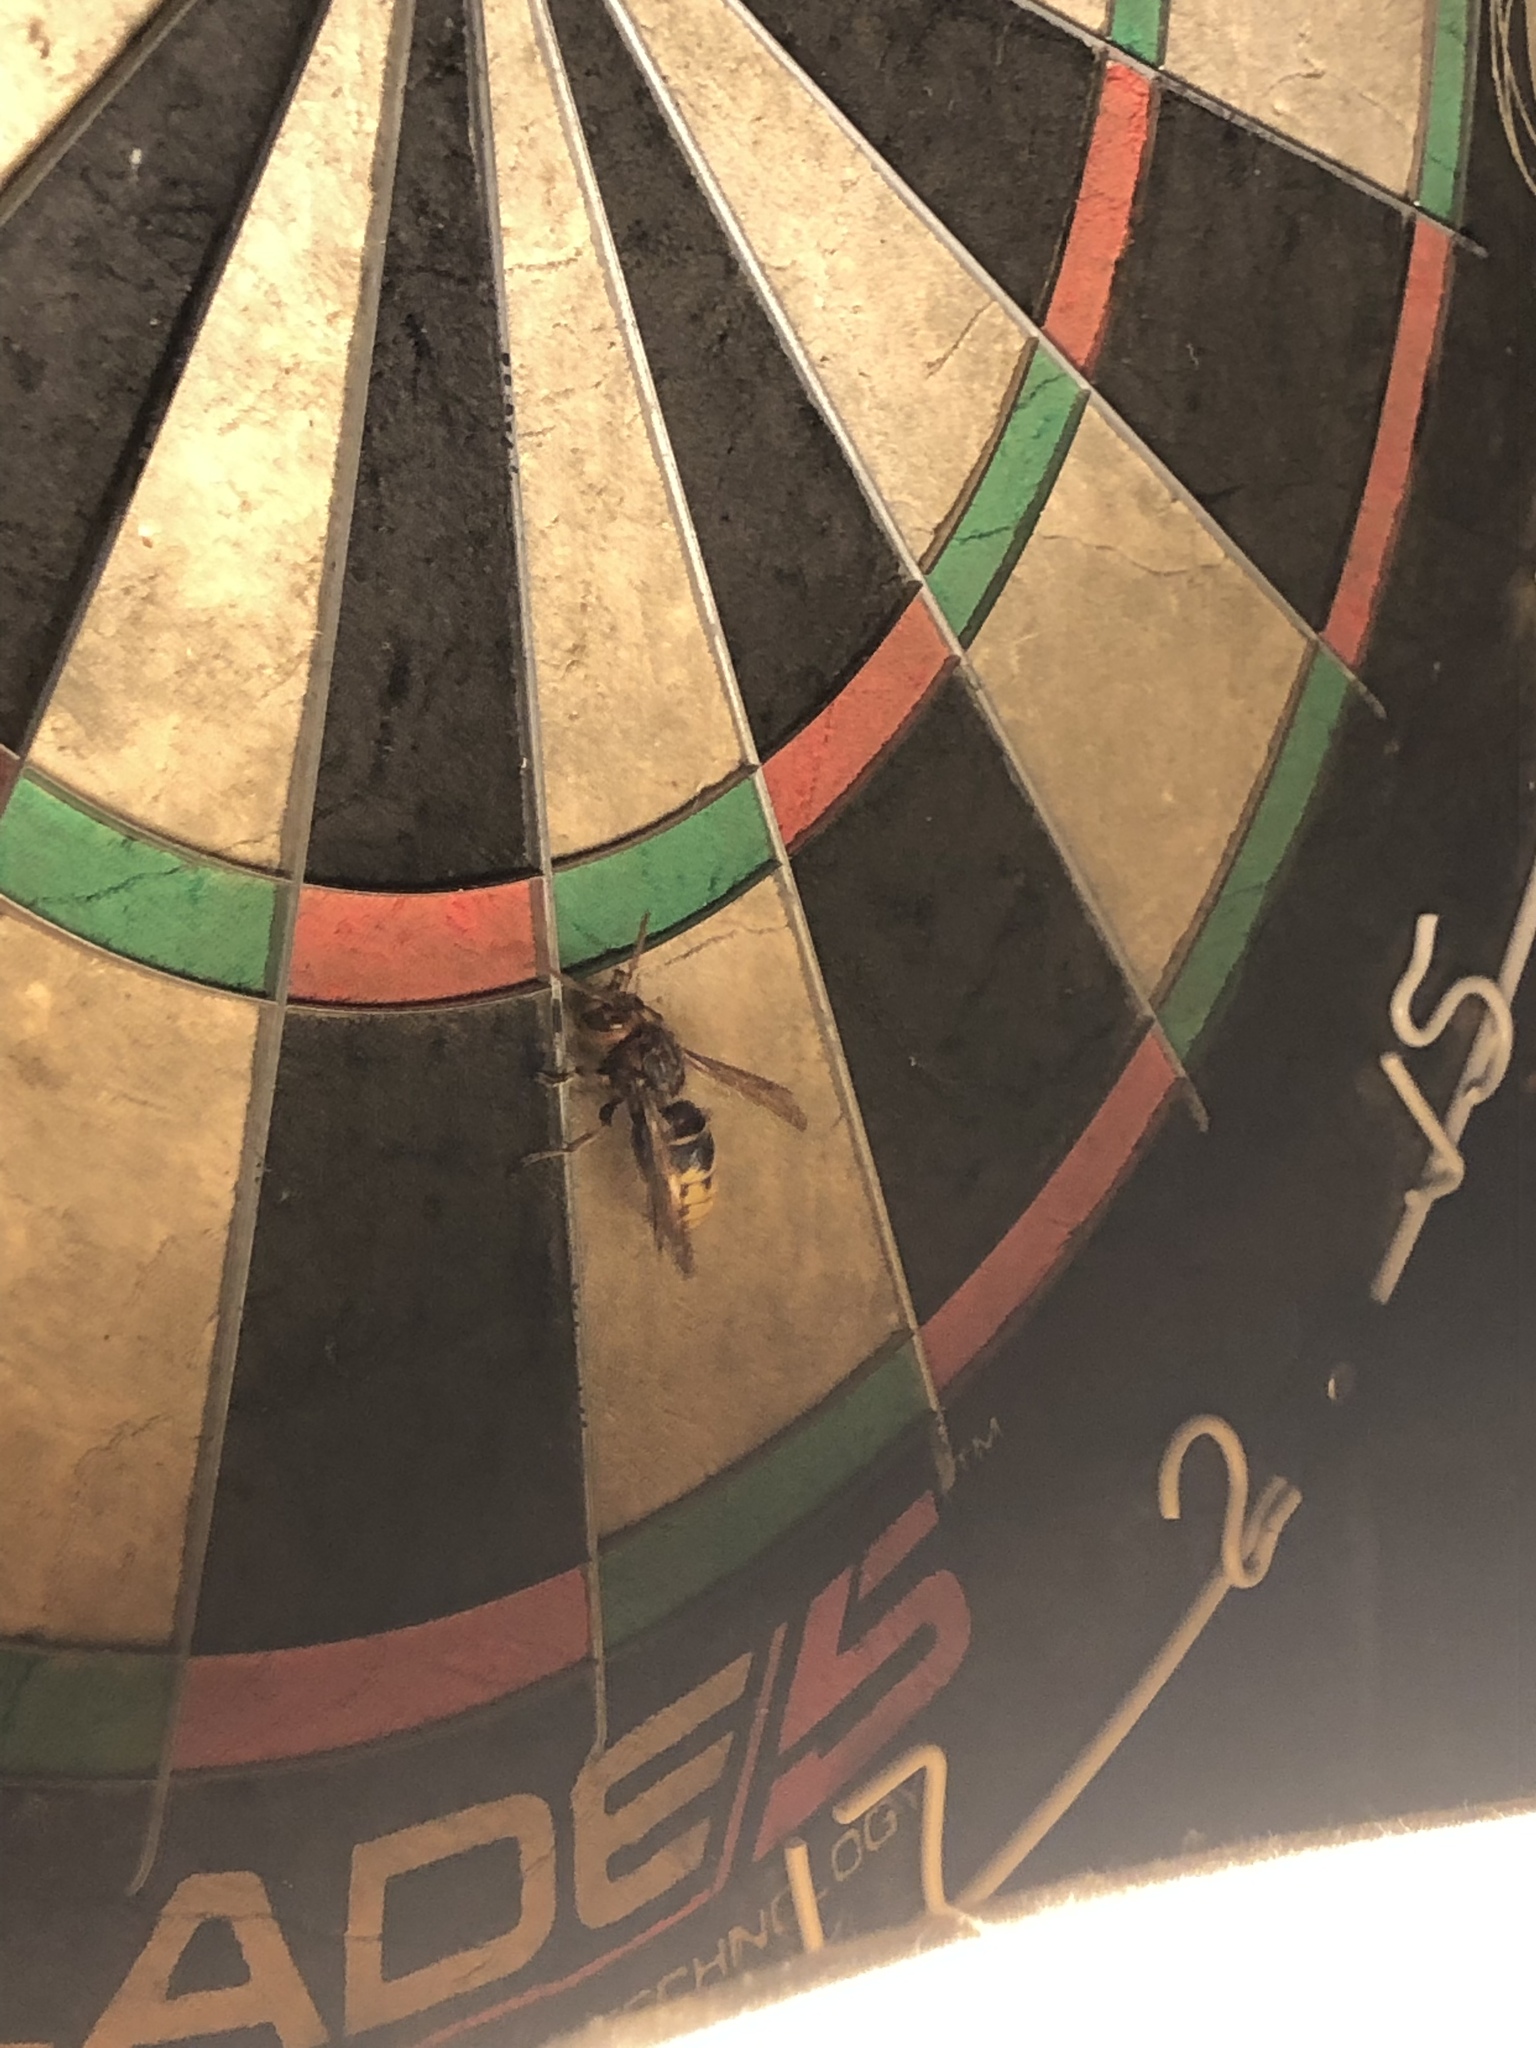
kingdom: Animalia
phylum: Arthropoda
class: Insecta
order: Hymenoptera
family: Vespidae
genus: Vespa
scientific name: Vespa crabro
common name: Hornet
